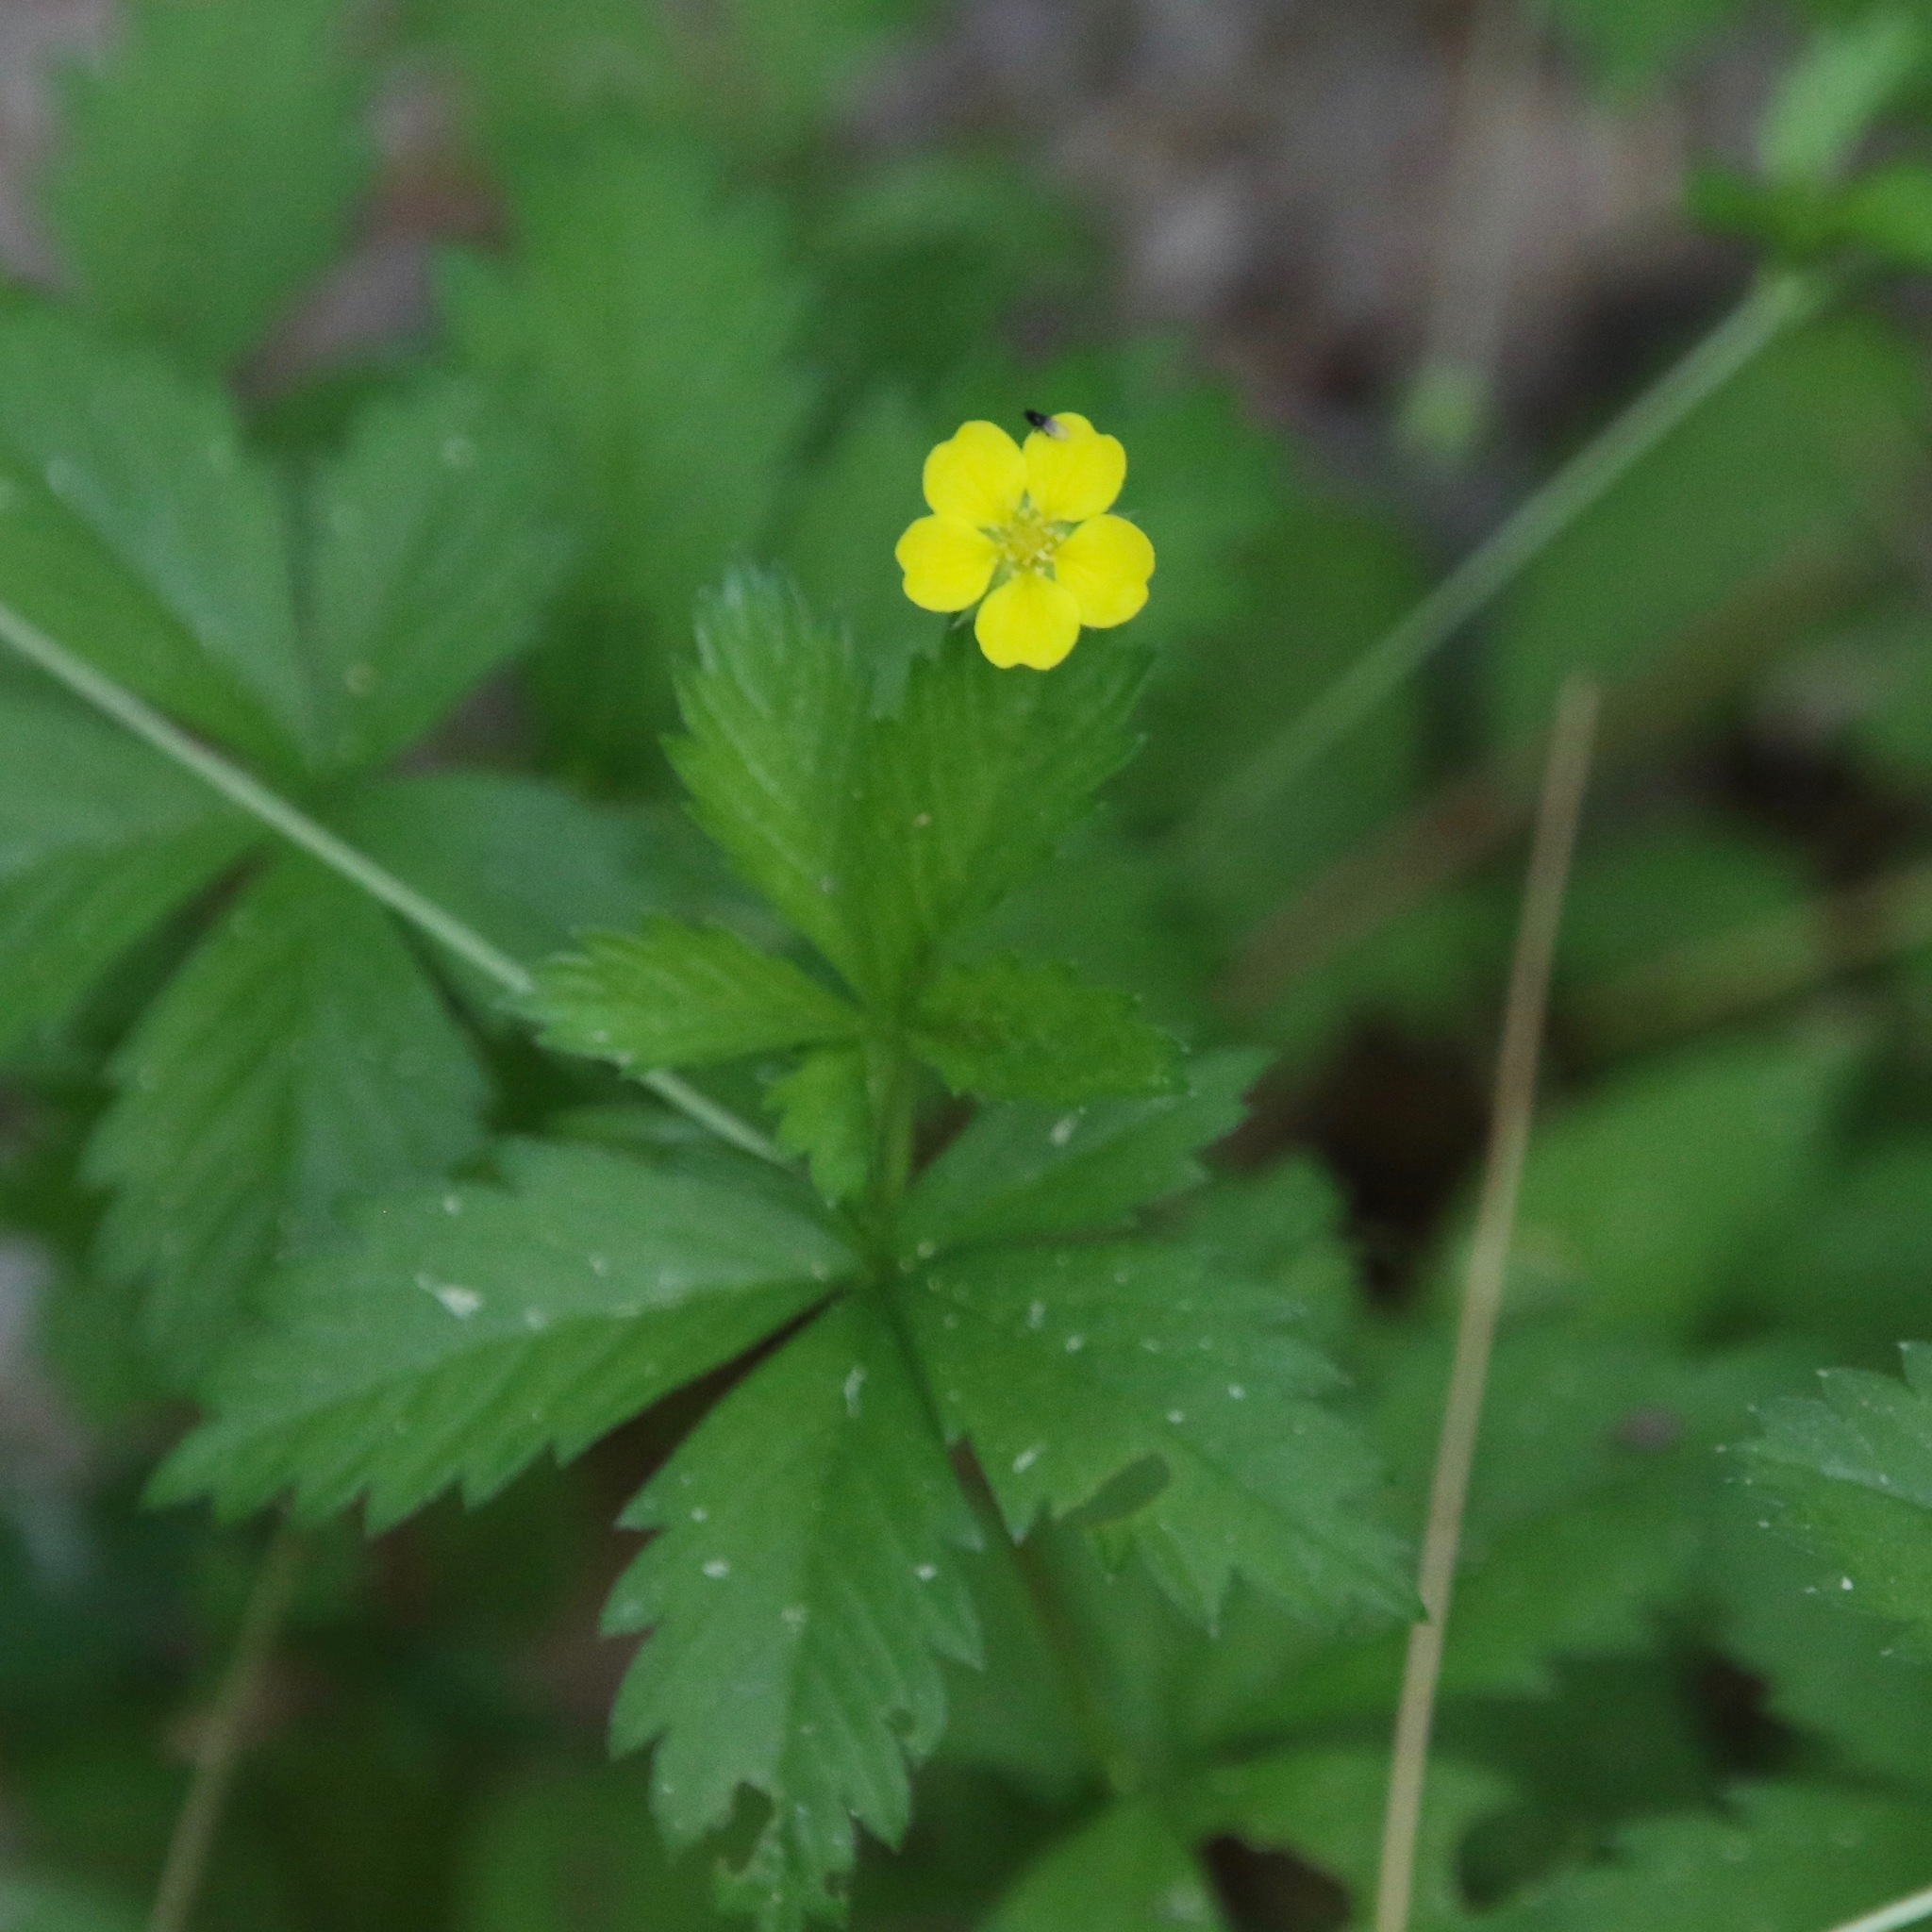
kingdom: Plantae
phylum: Tracheophyta
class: Magnoliopsida
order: Rosales
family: Rosaceae
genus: Potentilla
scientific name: Potentilla simplex
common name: Old field cinquefoil
